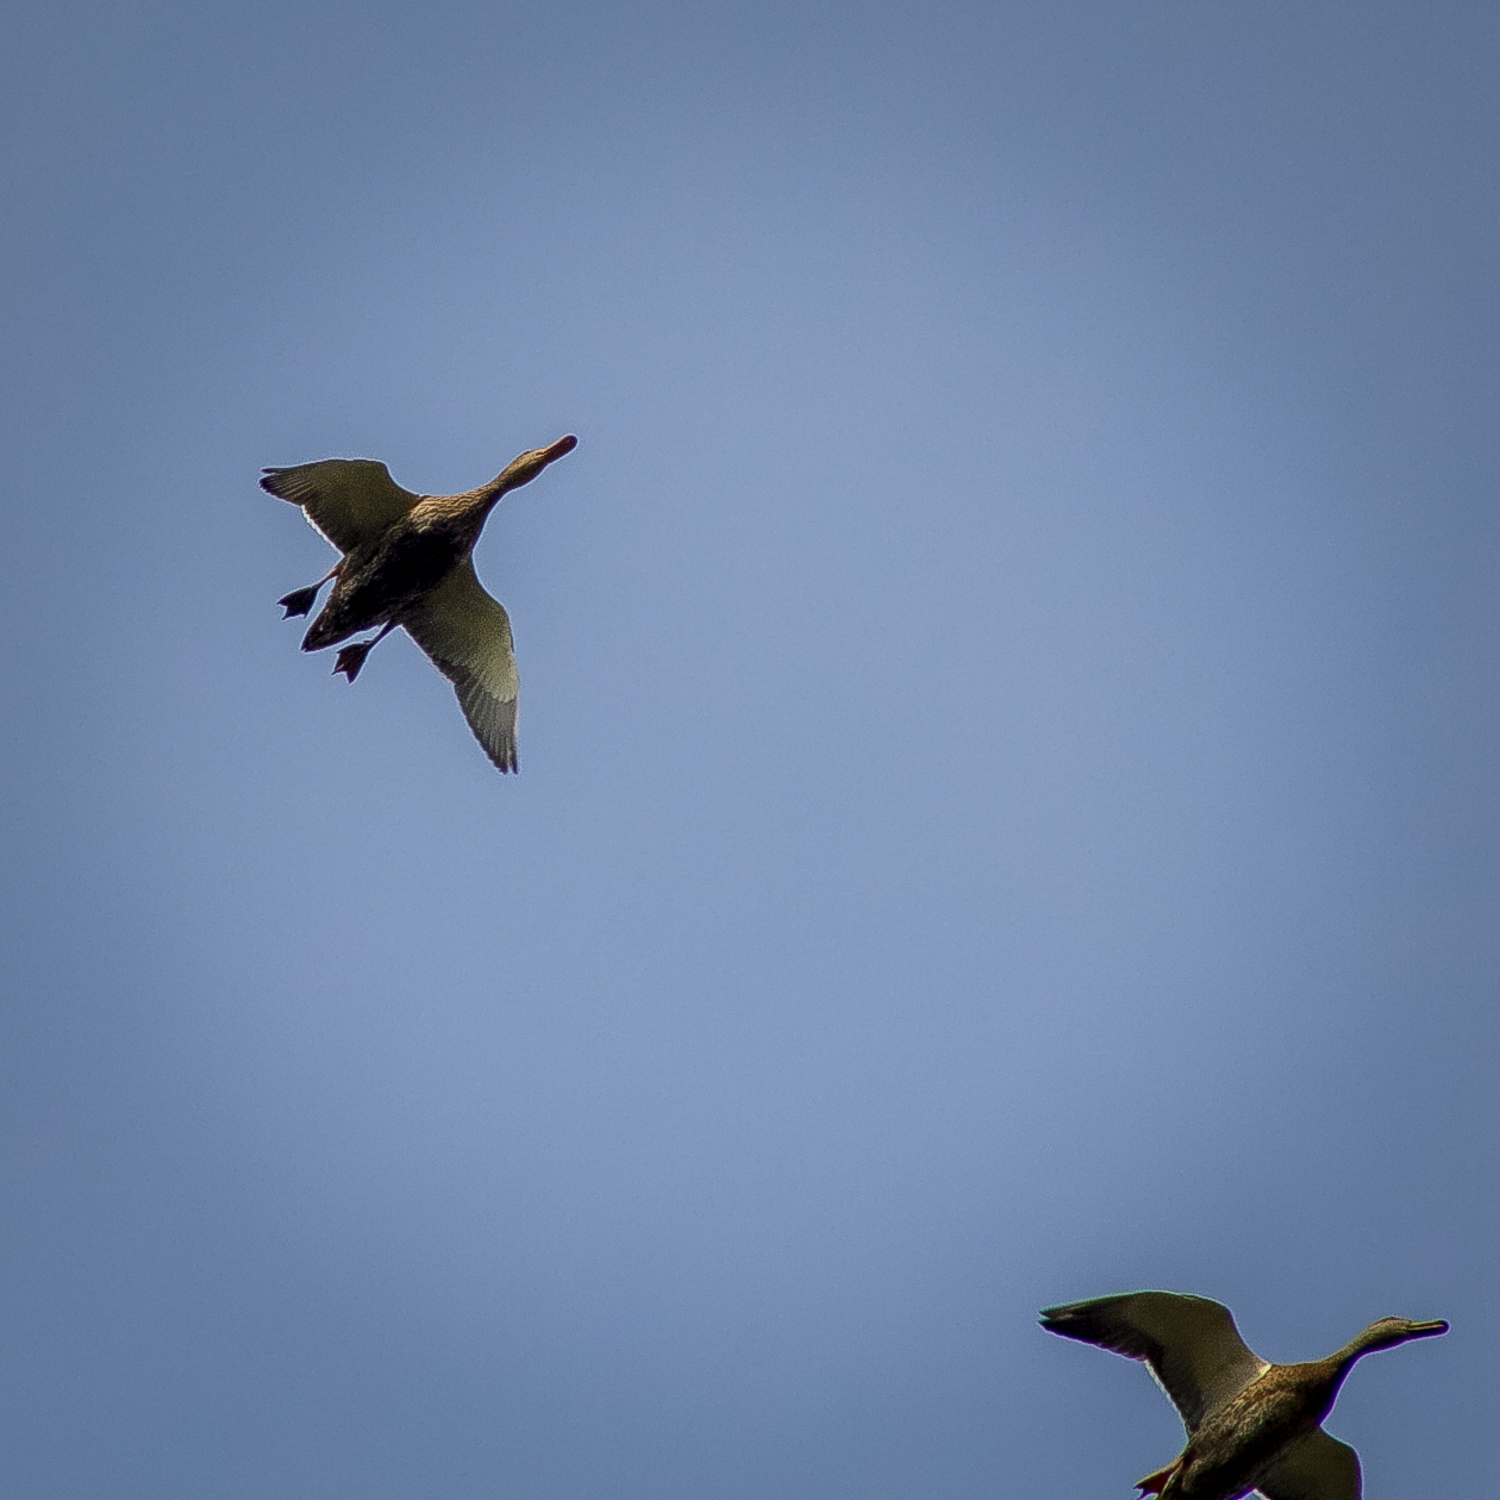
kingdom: Animalia
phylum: Chordata
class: Aves
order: Anseriformes
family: Anatidae
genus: Anas
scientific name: Anas platyrhynchos
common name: Mallard
